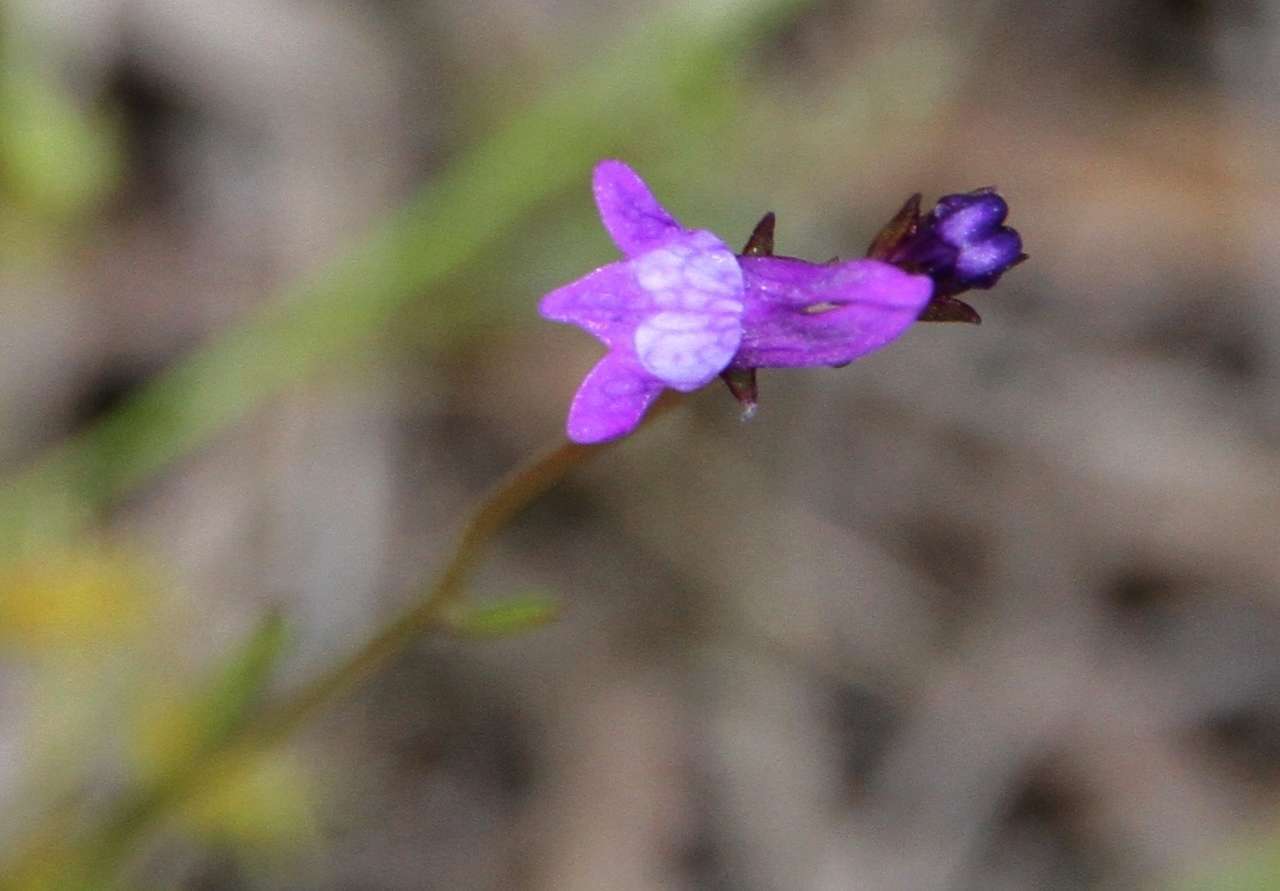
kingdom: Plantae
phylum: Tracheophyta
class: Magnoliopsida
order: Lamiales
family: Plantaginaceae
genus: Linaria
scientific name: Linaria pelisseriana
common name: Jersey toadflax
